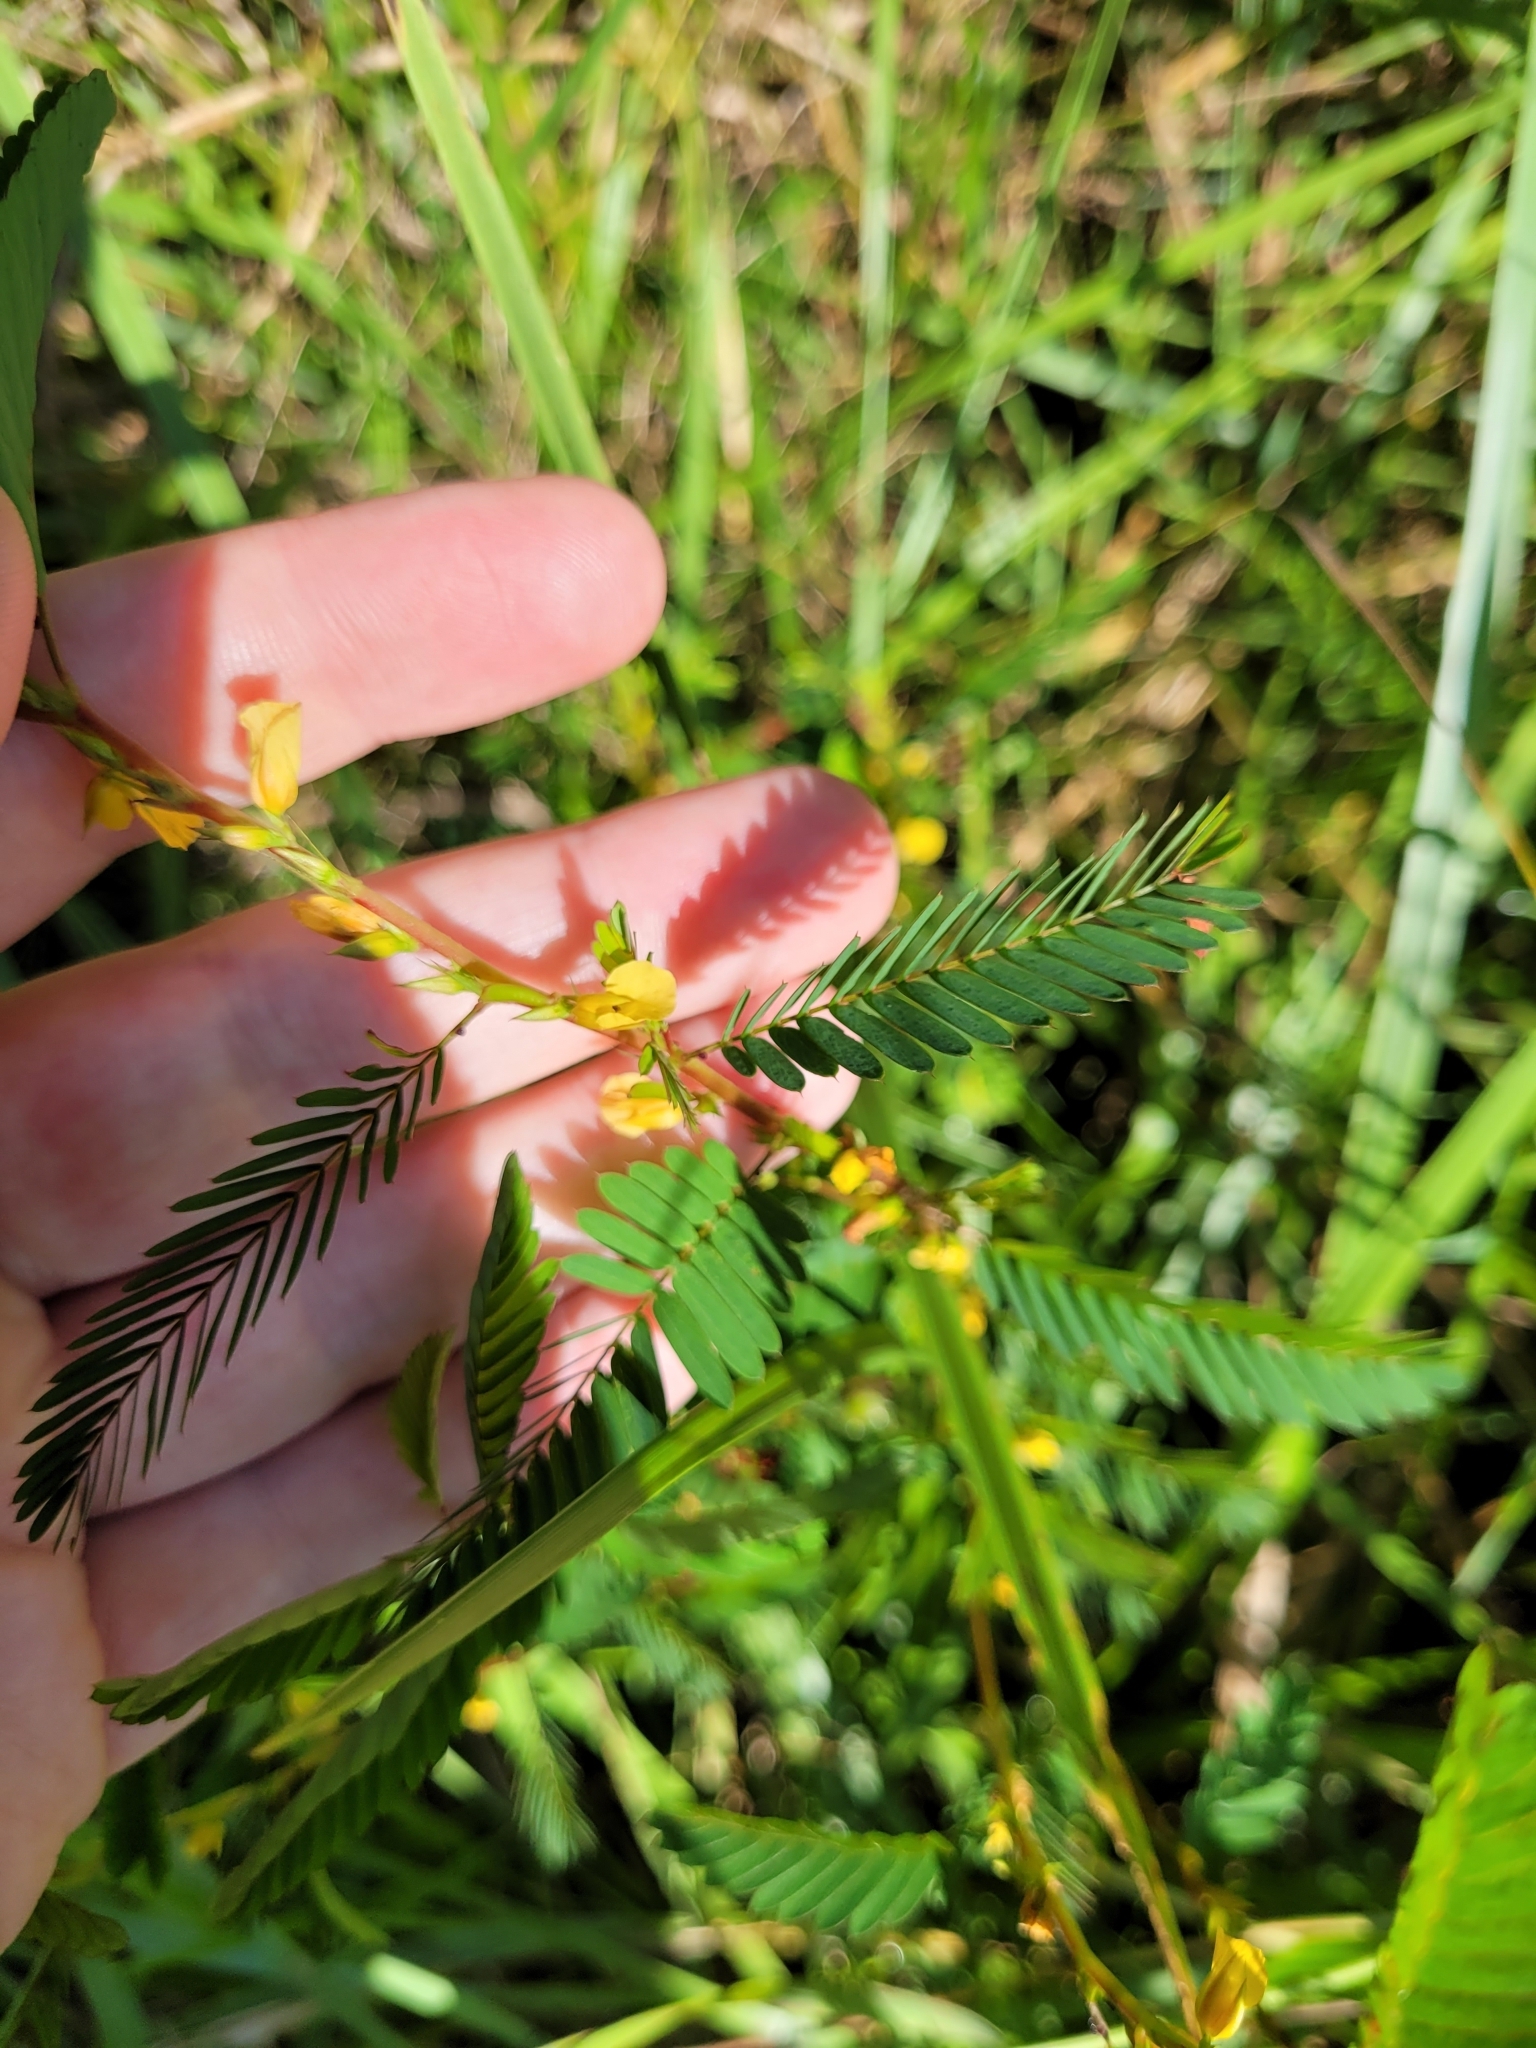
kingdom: Plantae
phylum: Tracheophyta
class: Magnoliopsida
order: Fabales
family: Fabaceae
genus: Chamaecrista
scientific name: Chamaecrista nictitans
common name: Sensitive cassia
